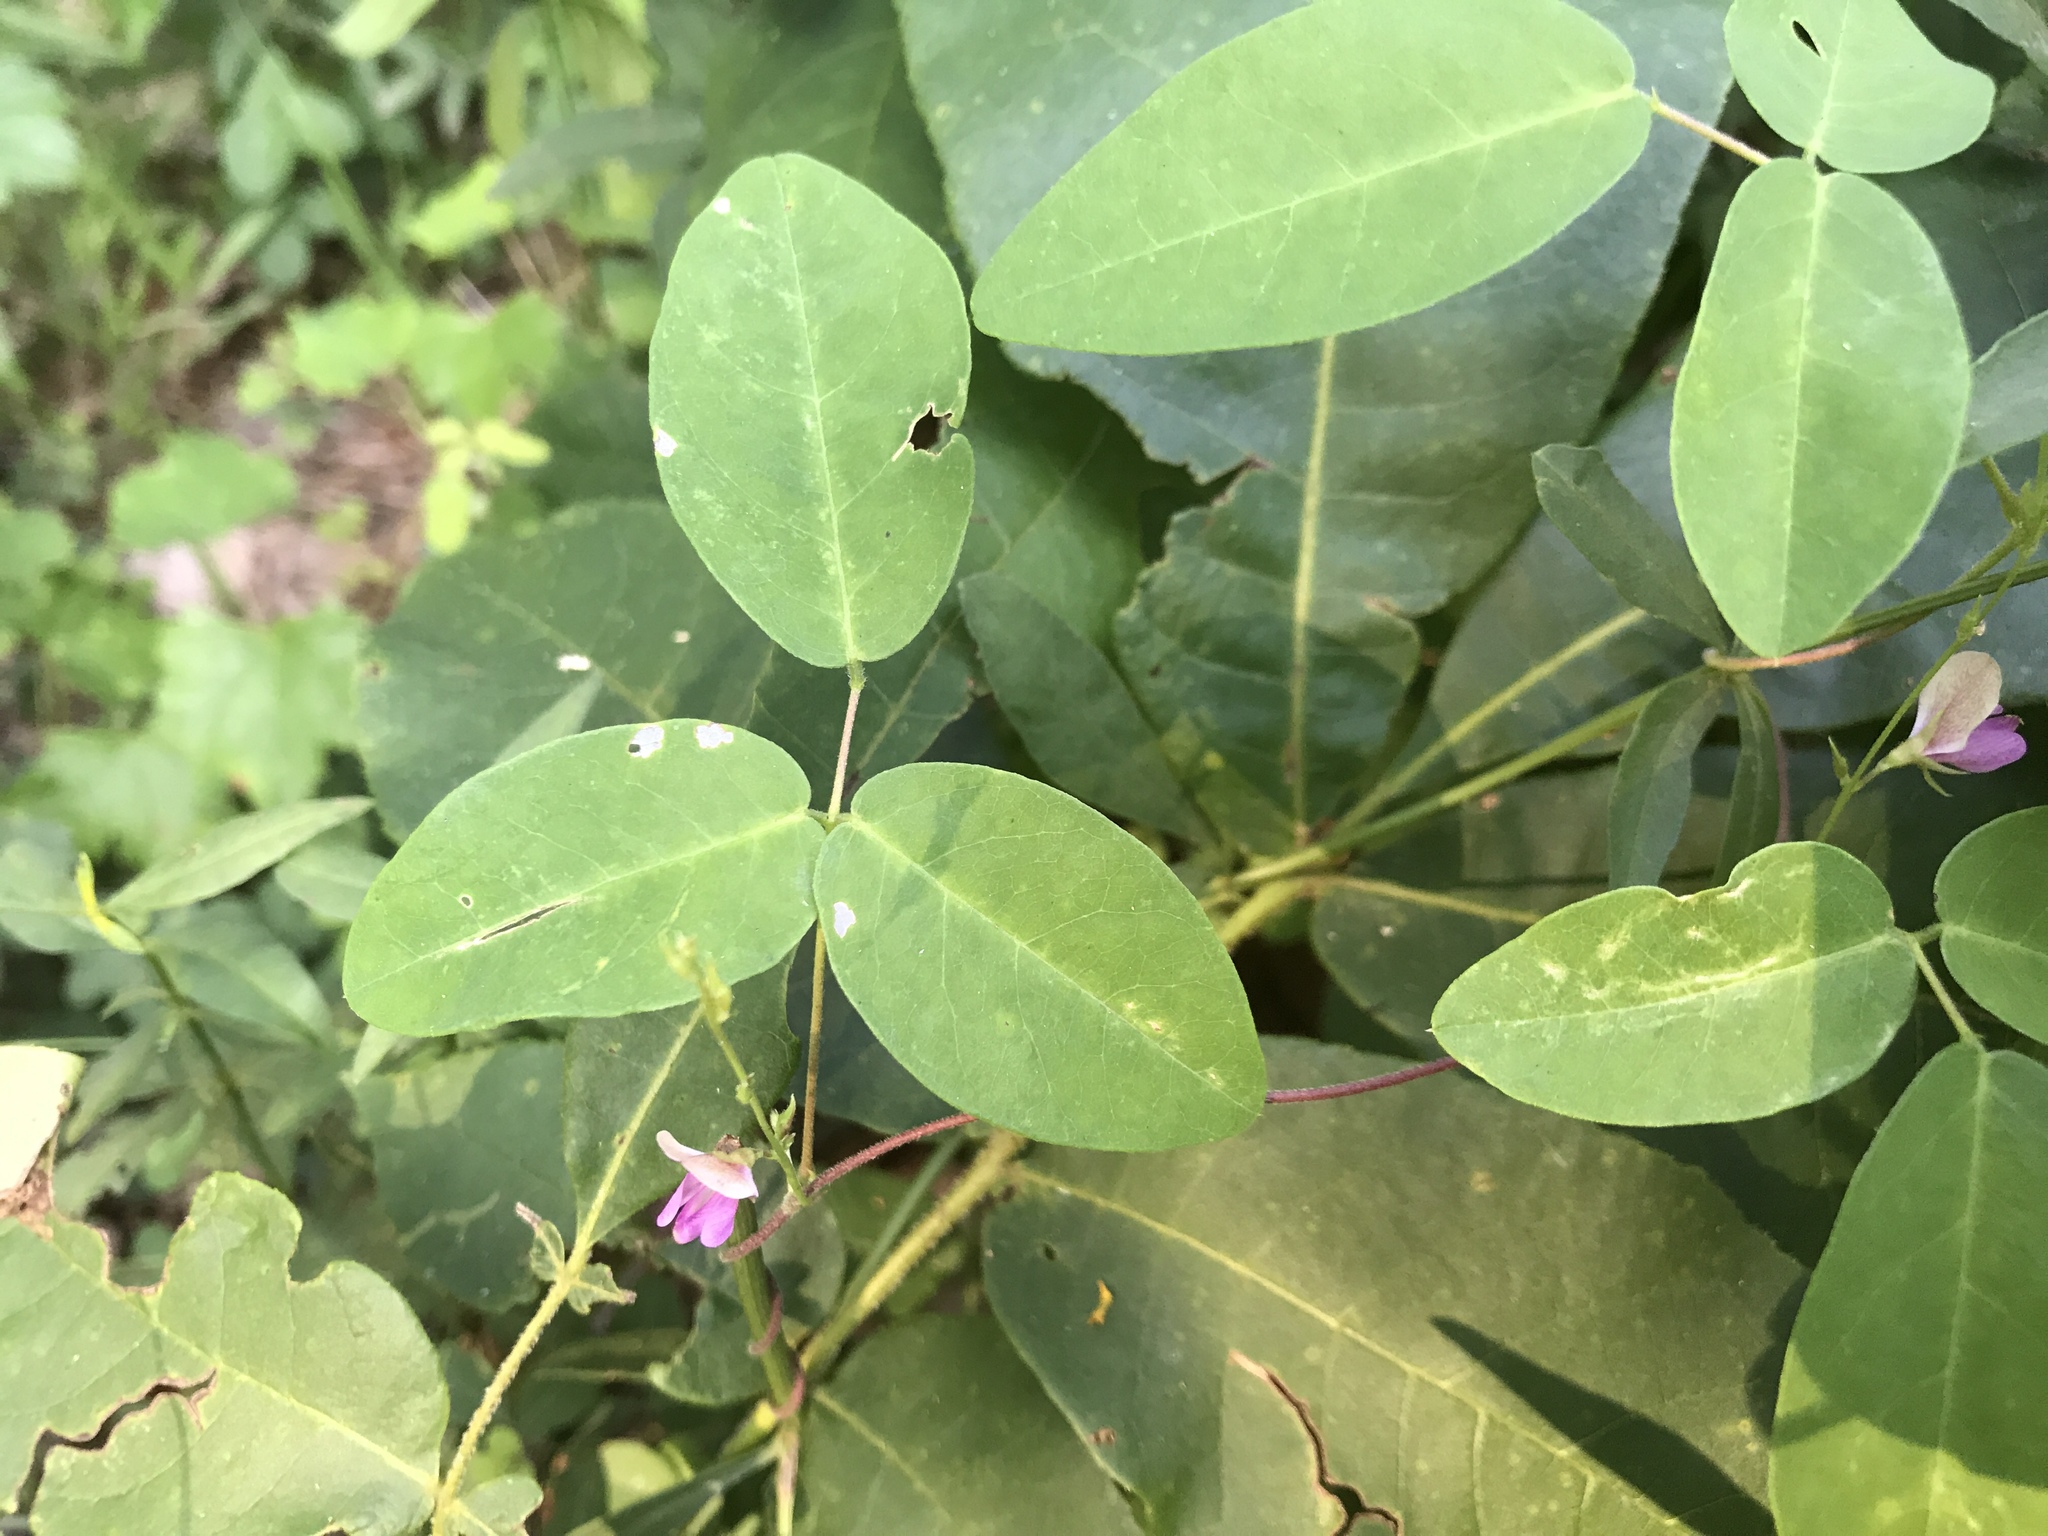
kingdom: Plantae
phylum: Tracheophyta
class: Magnoliopsida
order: Fabales
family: Fabaceae
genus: Galactia
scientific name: Galactia regularis
